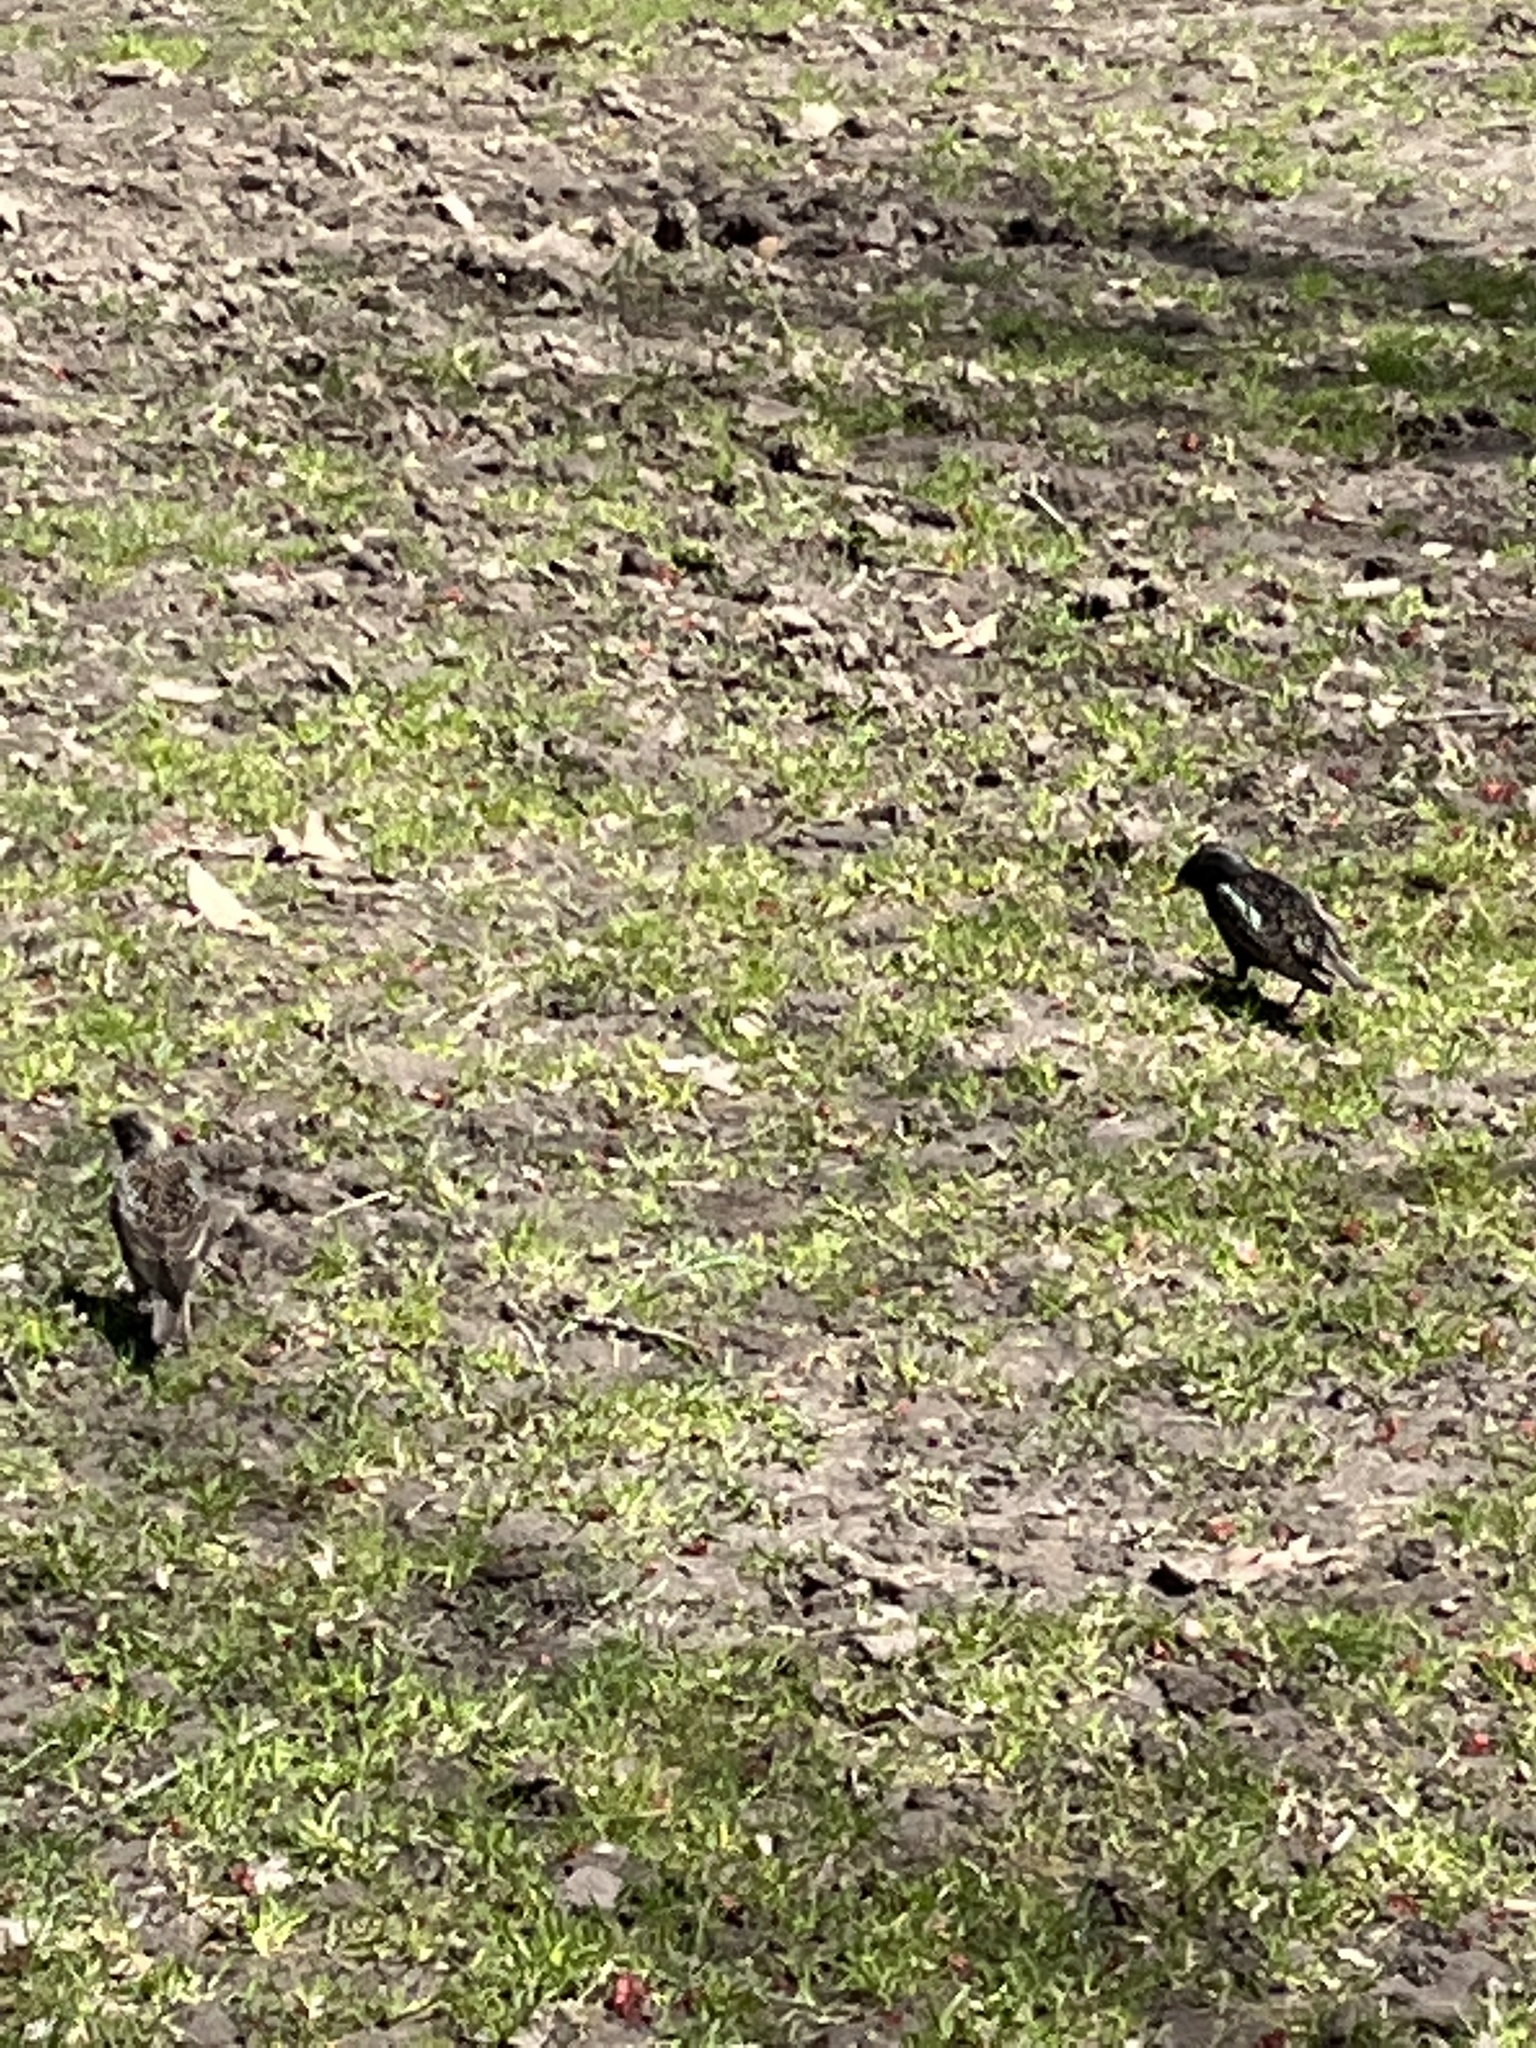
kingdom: Animalia
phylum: Chordata
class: Aves
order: Passeriformes
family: Sturnidae
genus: Sturnus
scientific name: Sturnus vulgaris
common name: Common starling
